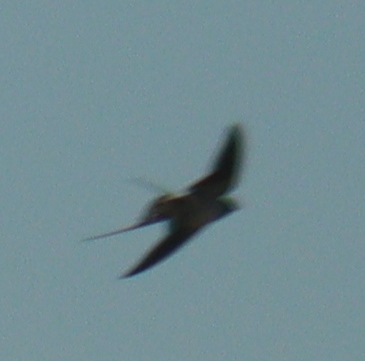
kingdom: Animalia
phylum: Chordata
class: Aves
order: Passeriformes
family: Hirundinidae
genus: Hirundo
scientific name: Hirundo rustica
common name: Barn swallow
